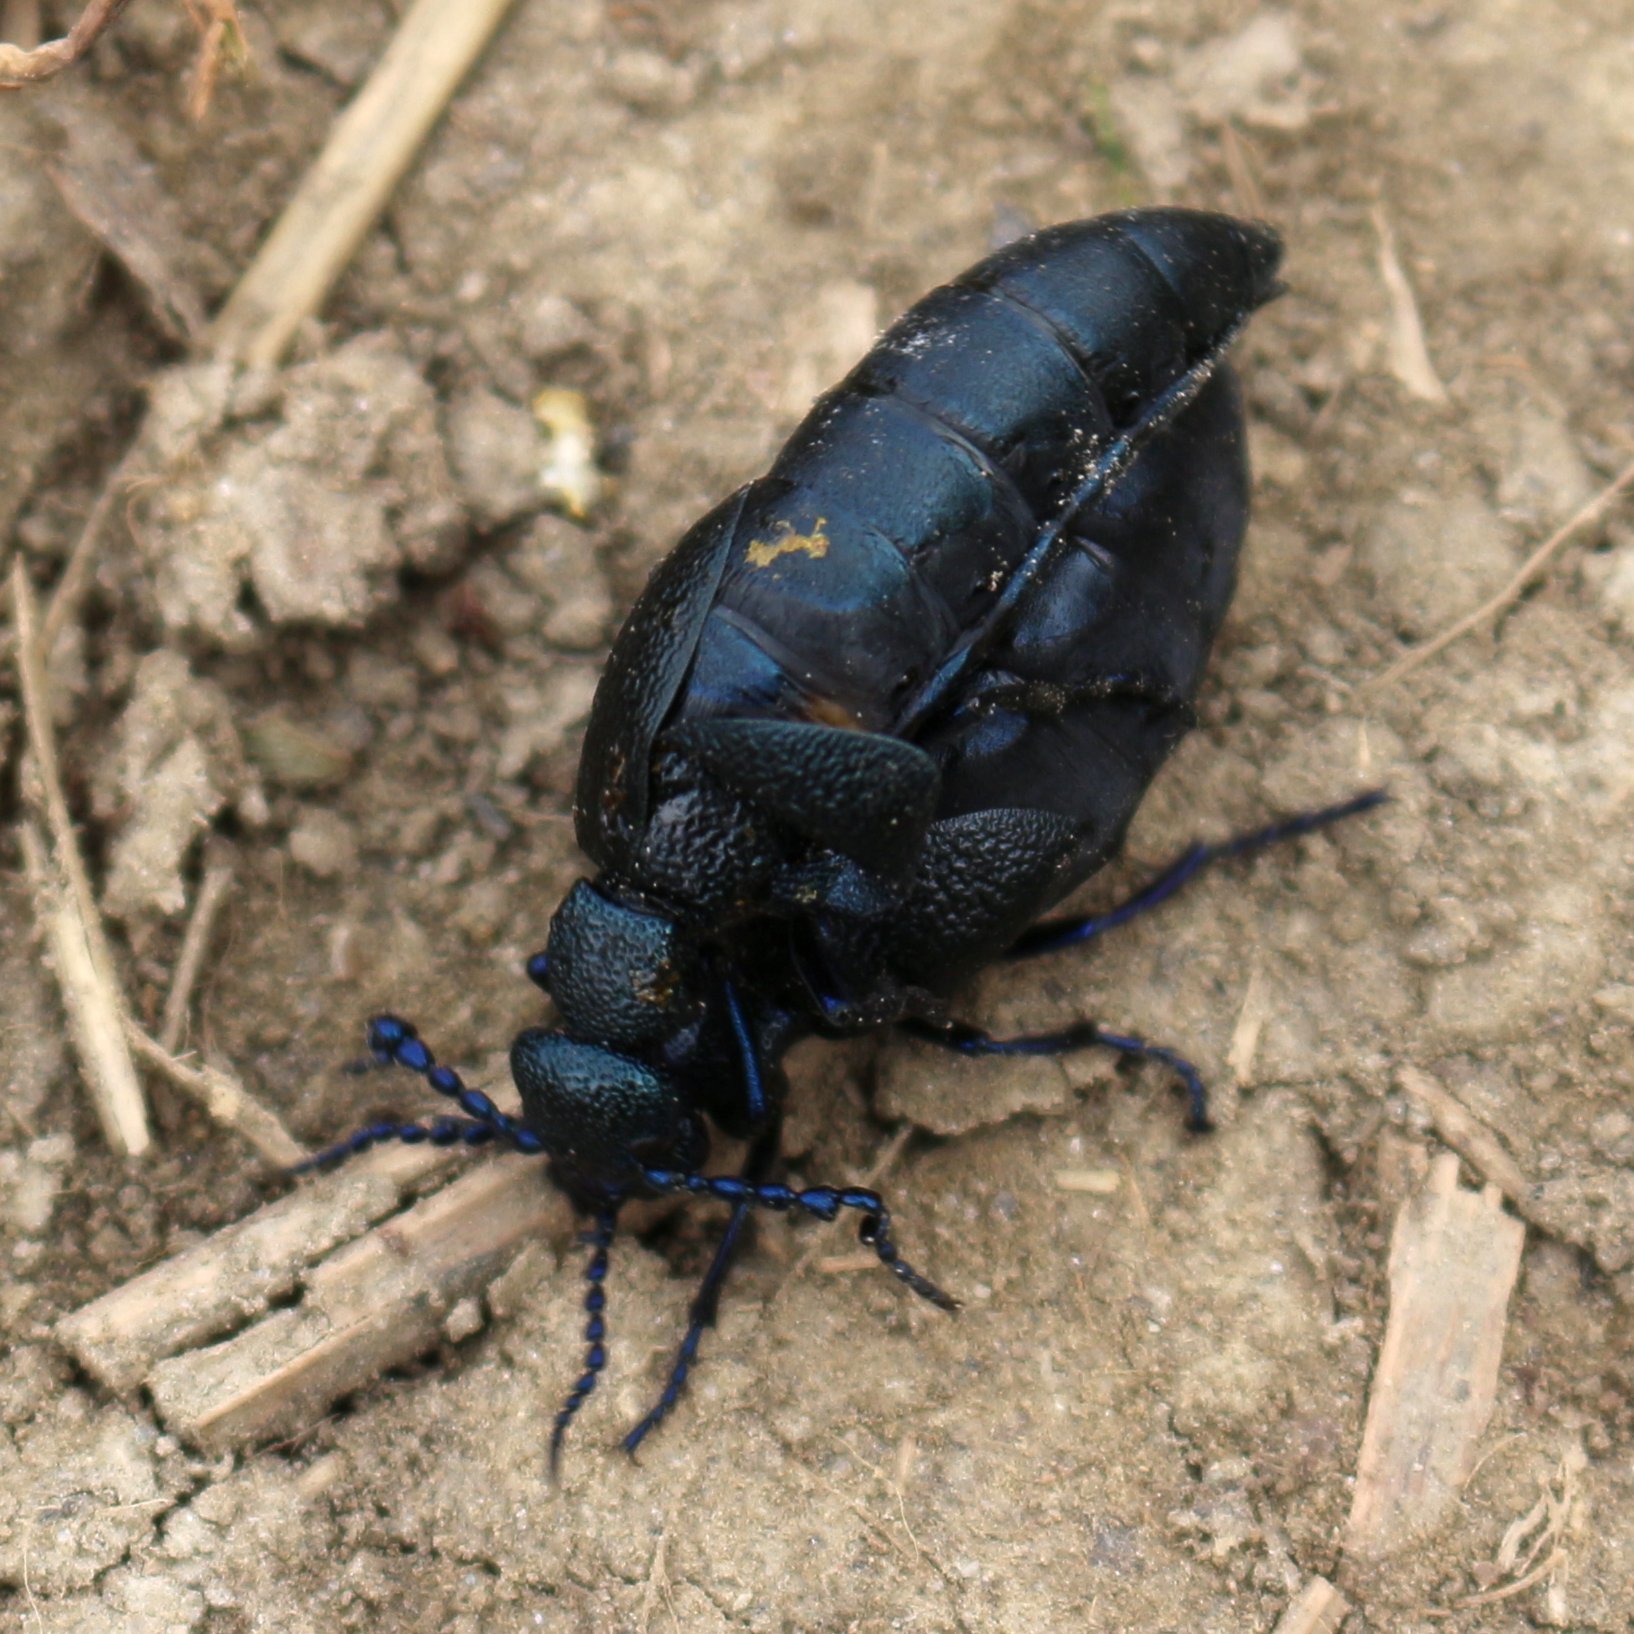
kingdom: Animalia
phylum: Arthropoda
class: Insecta
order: Coleoptera
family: Meloidae
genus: Meloe
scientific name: Meloe proscarabaeus
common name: Black oil-beetle
